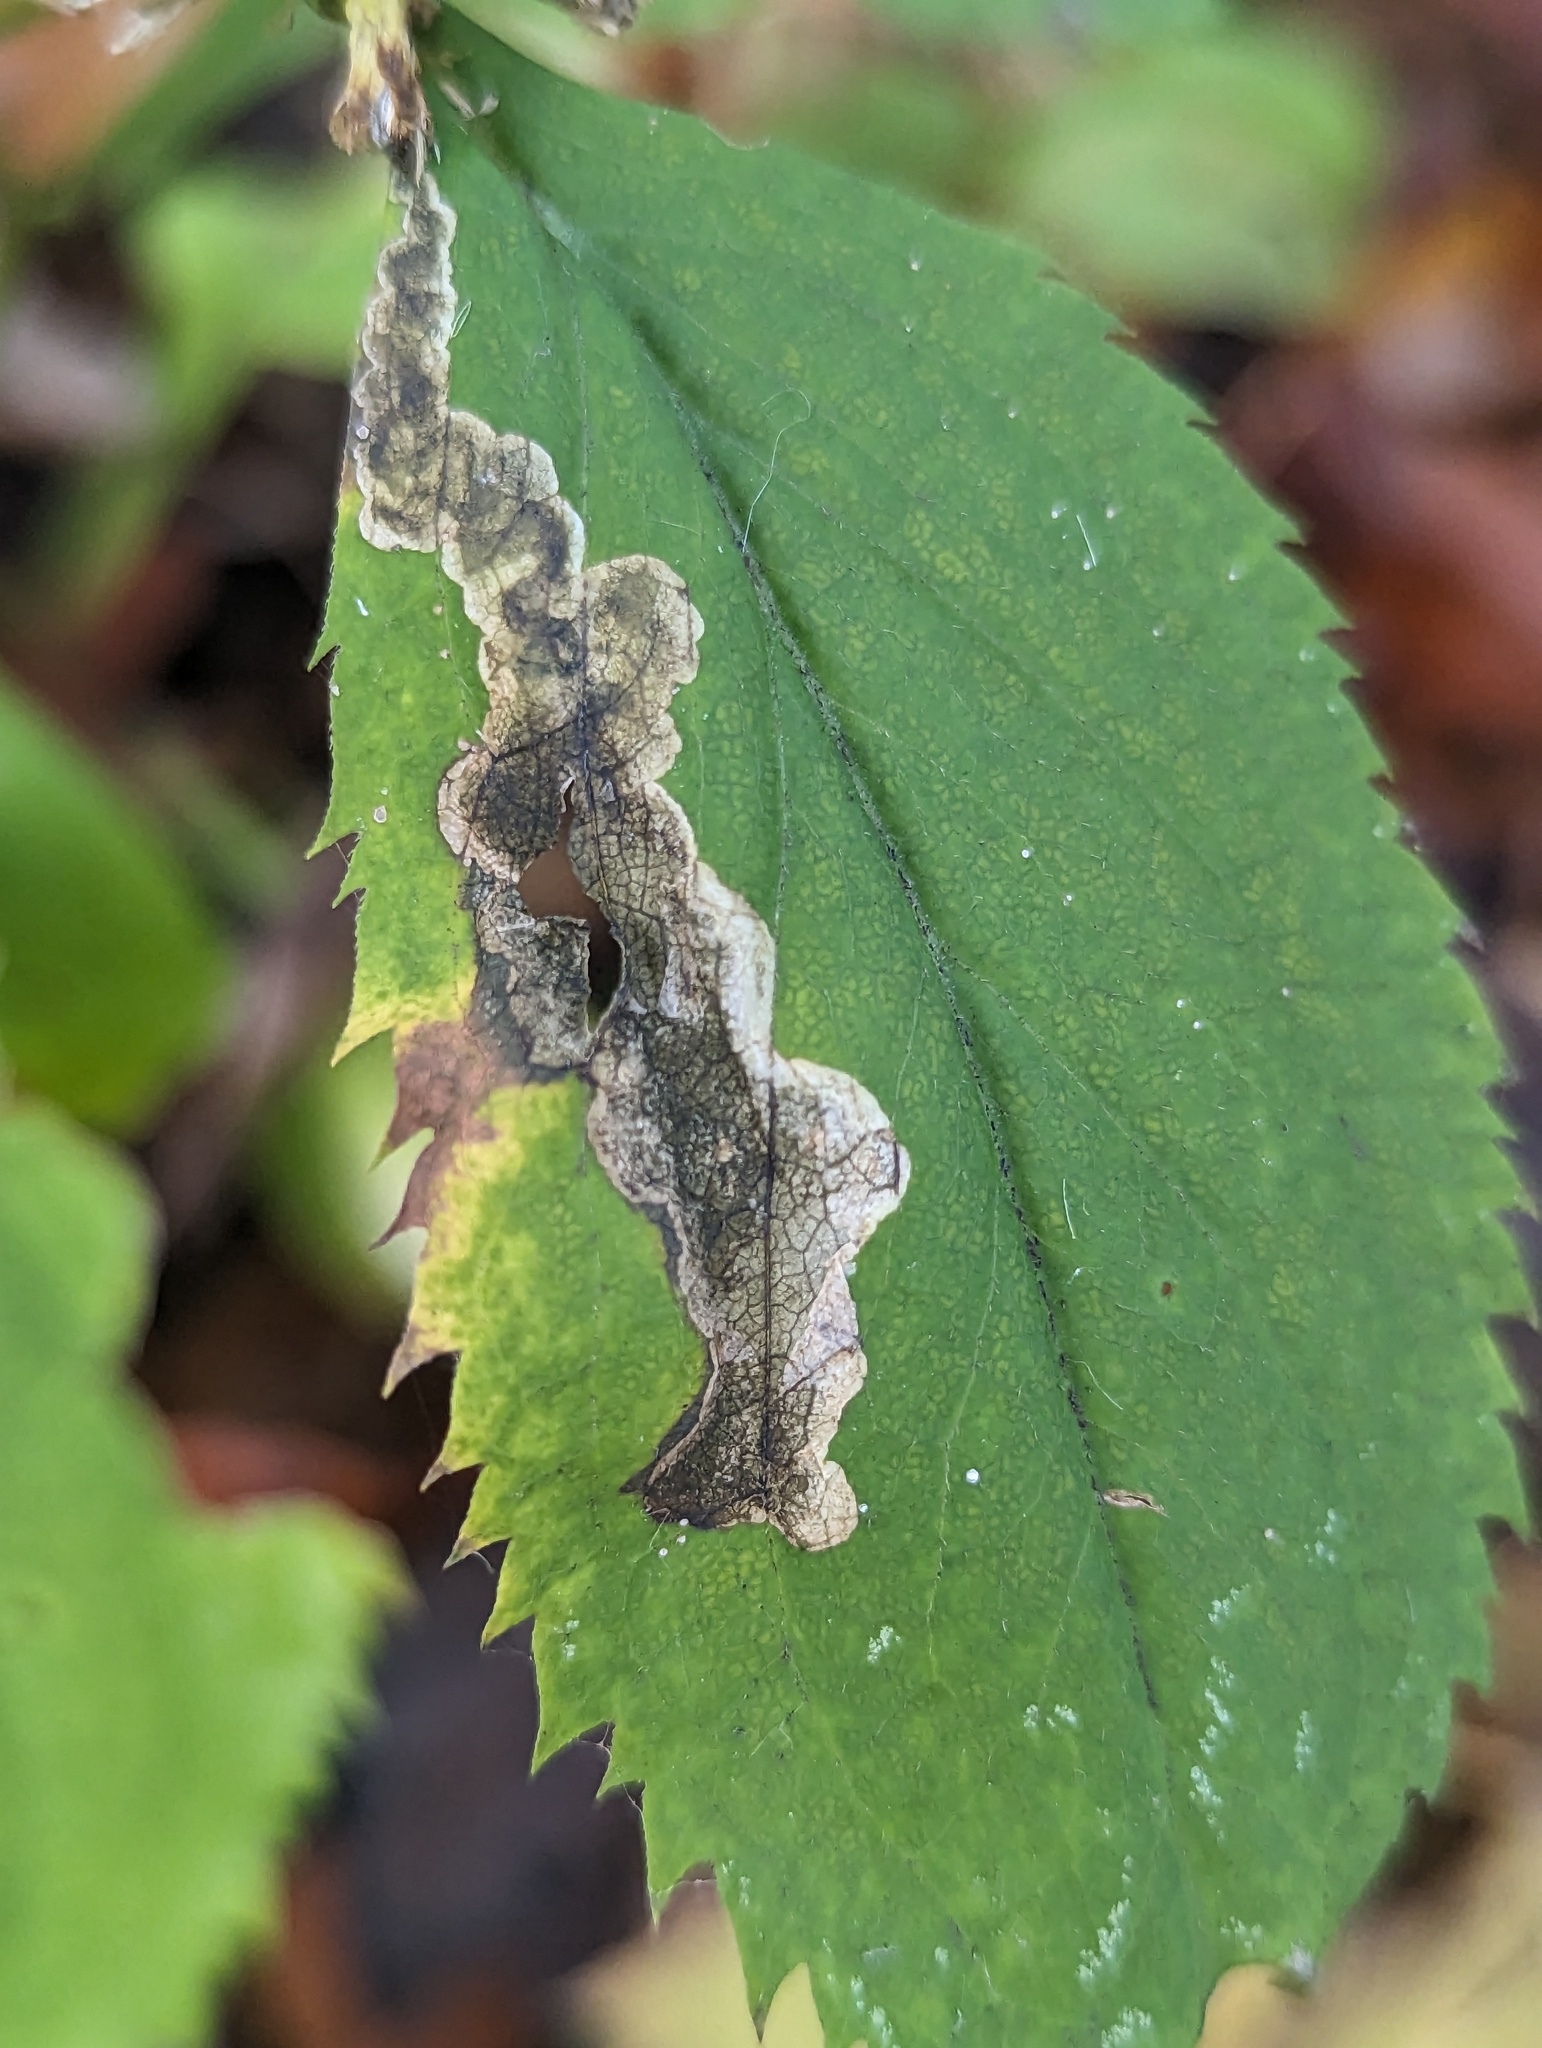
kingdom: Animalia
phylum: Arthropoda
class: Insecta
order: Diptera
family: Agromyzidae
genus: Nemorimyza
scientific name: Nemorimyza posticata
